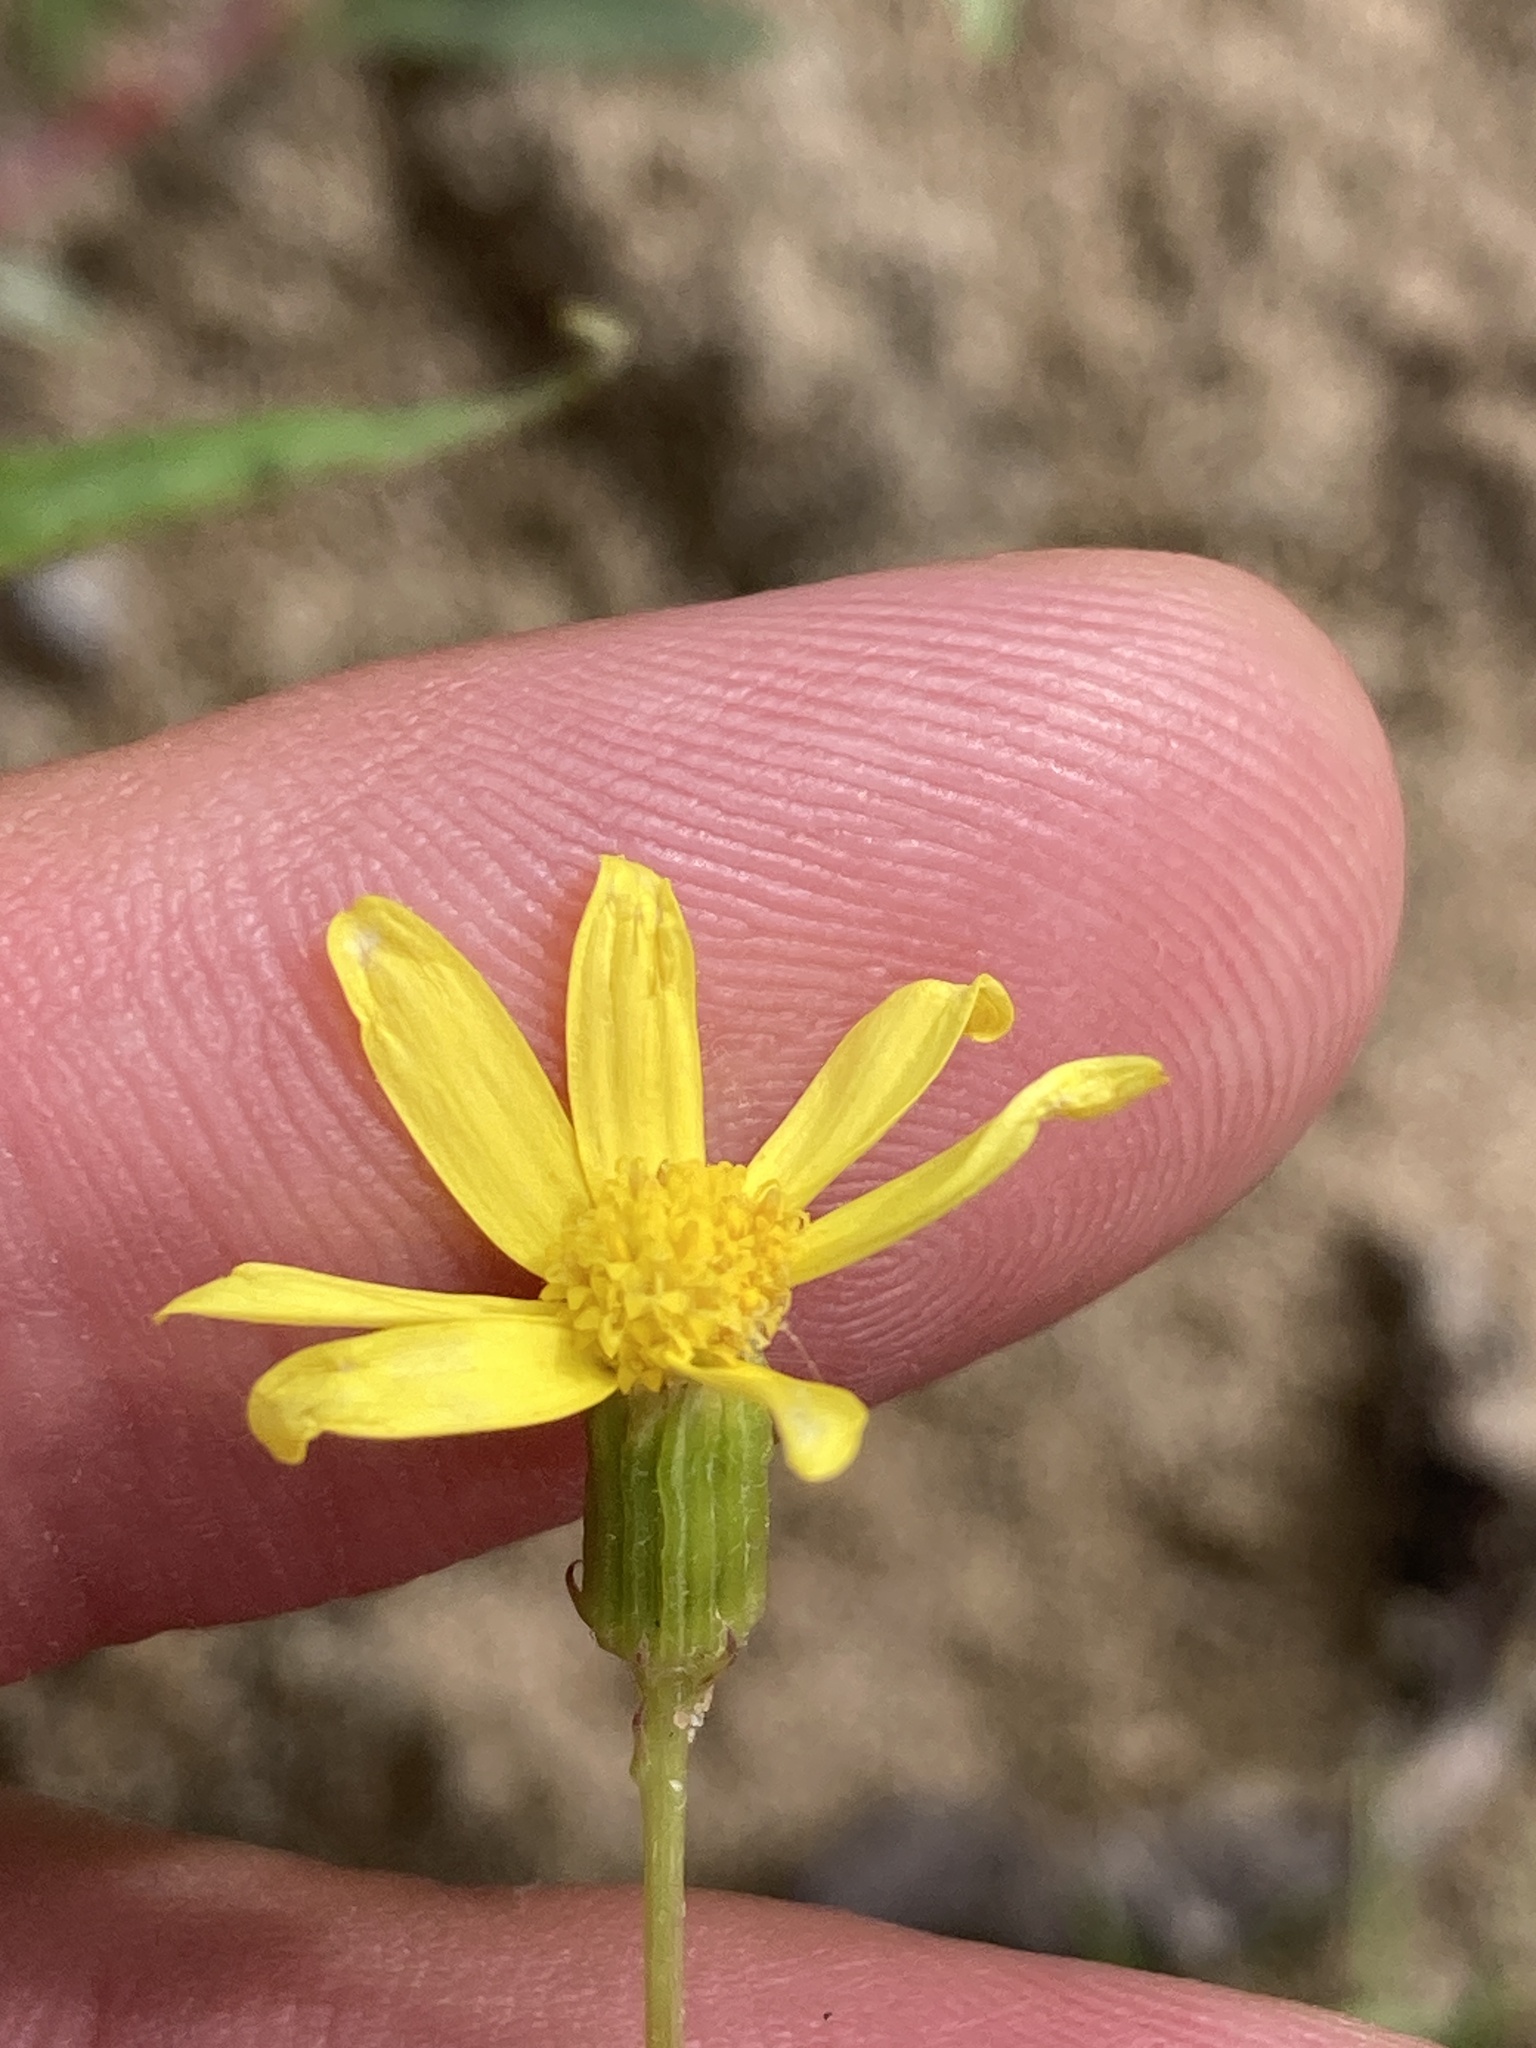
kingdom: Plantae
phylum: Tracheophyta
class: Magnoliopsida
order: Asterales
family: Asteraceae
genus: Senecio
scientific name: Senecio vernalis
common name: Eastern groundsel
